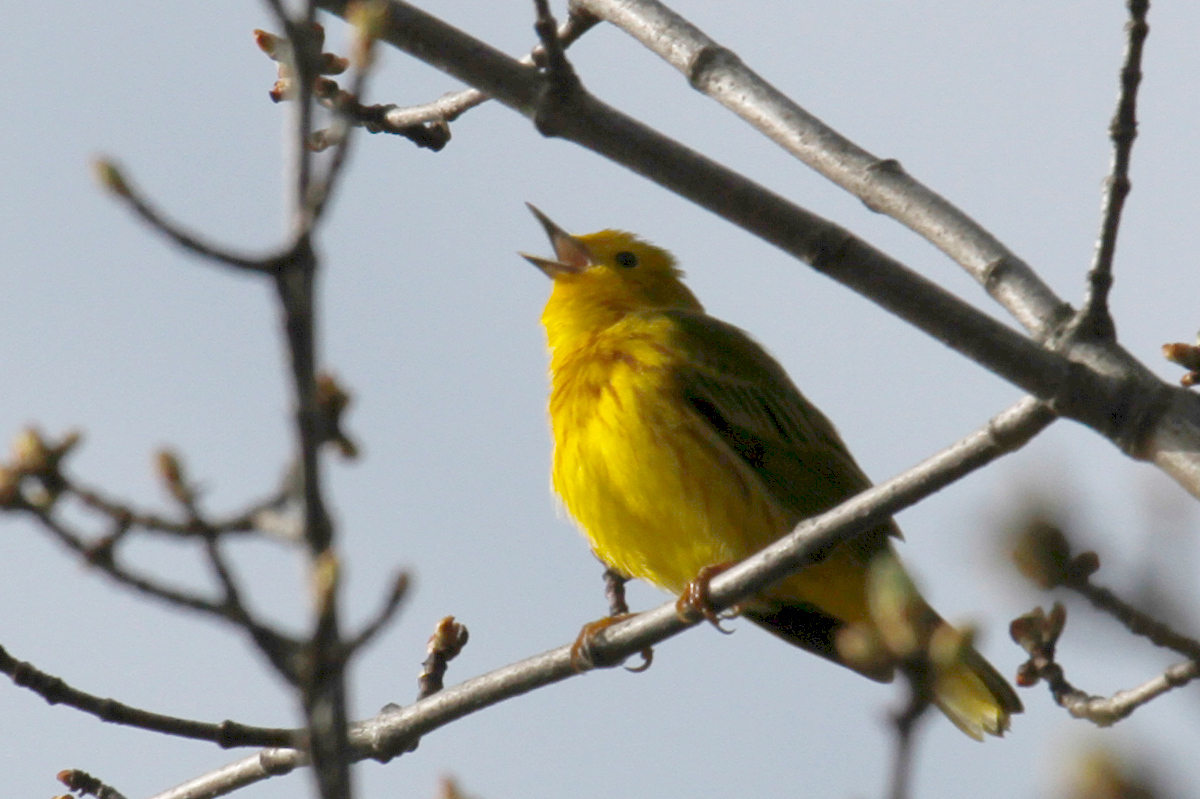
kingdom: Animalia
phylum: Chordata
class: Aves
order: Passeriformes
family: Parulidae
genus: Setophaga
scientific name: Setophaga petechia
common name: Yellow warbler
